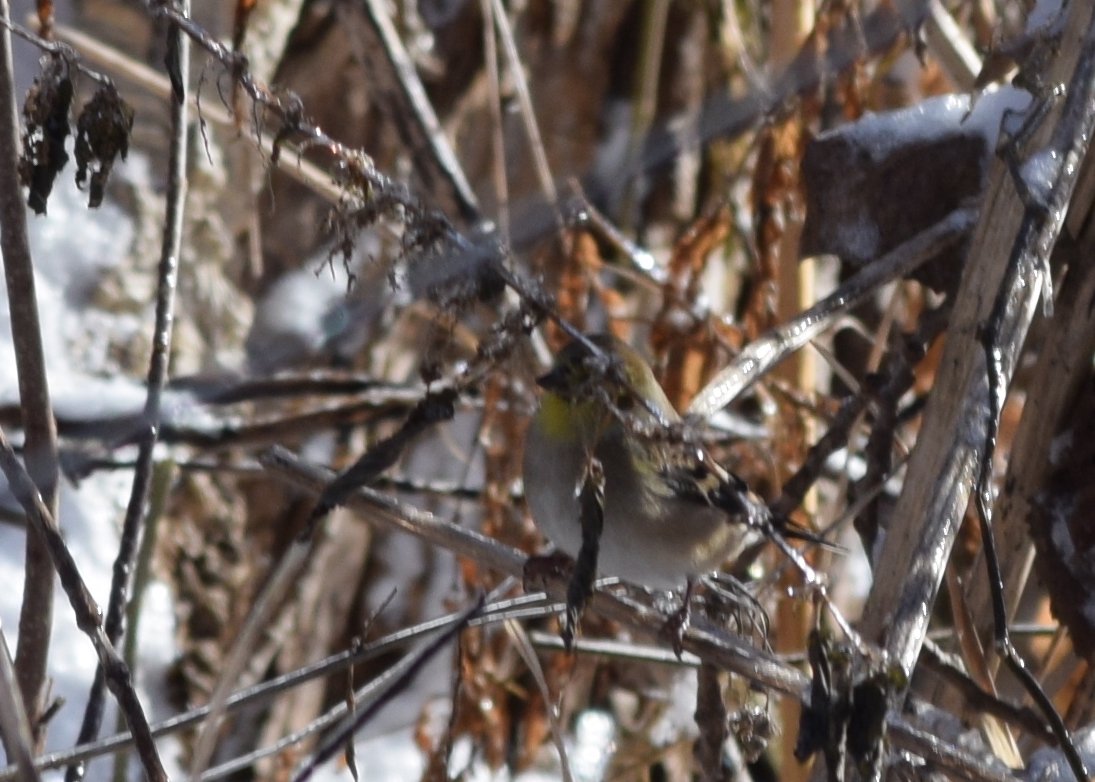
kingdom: Animalia
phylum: Chordata
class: Aves
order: Passeriformes
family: Fringillidae
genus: Spinus
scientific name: Spinus tristis
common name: American goldfinch
